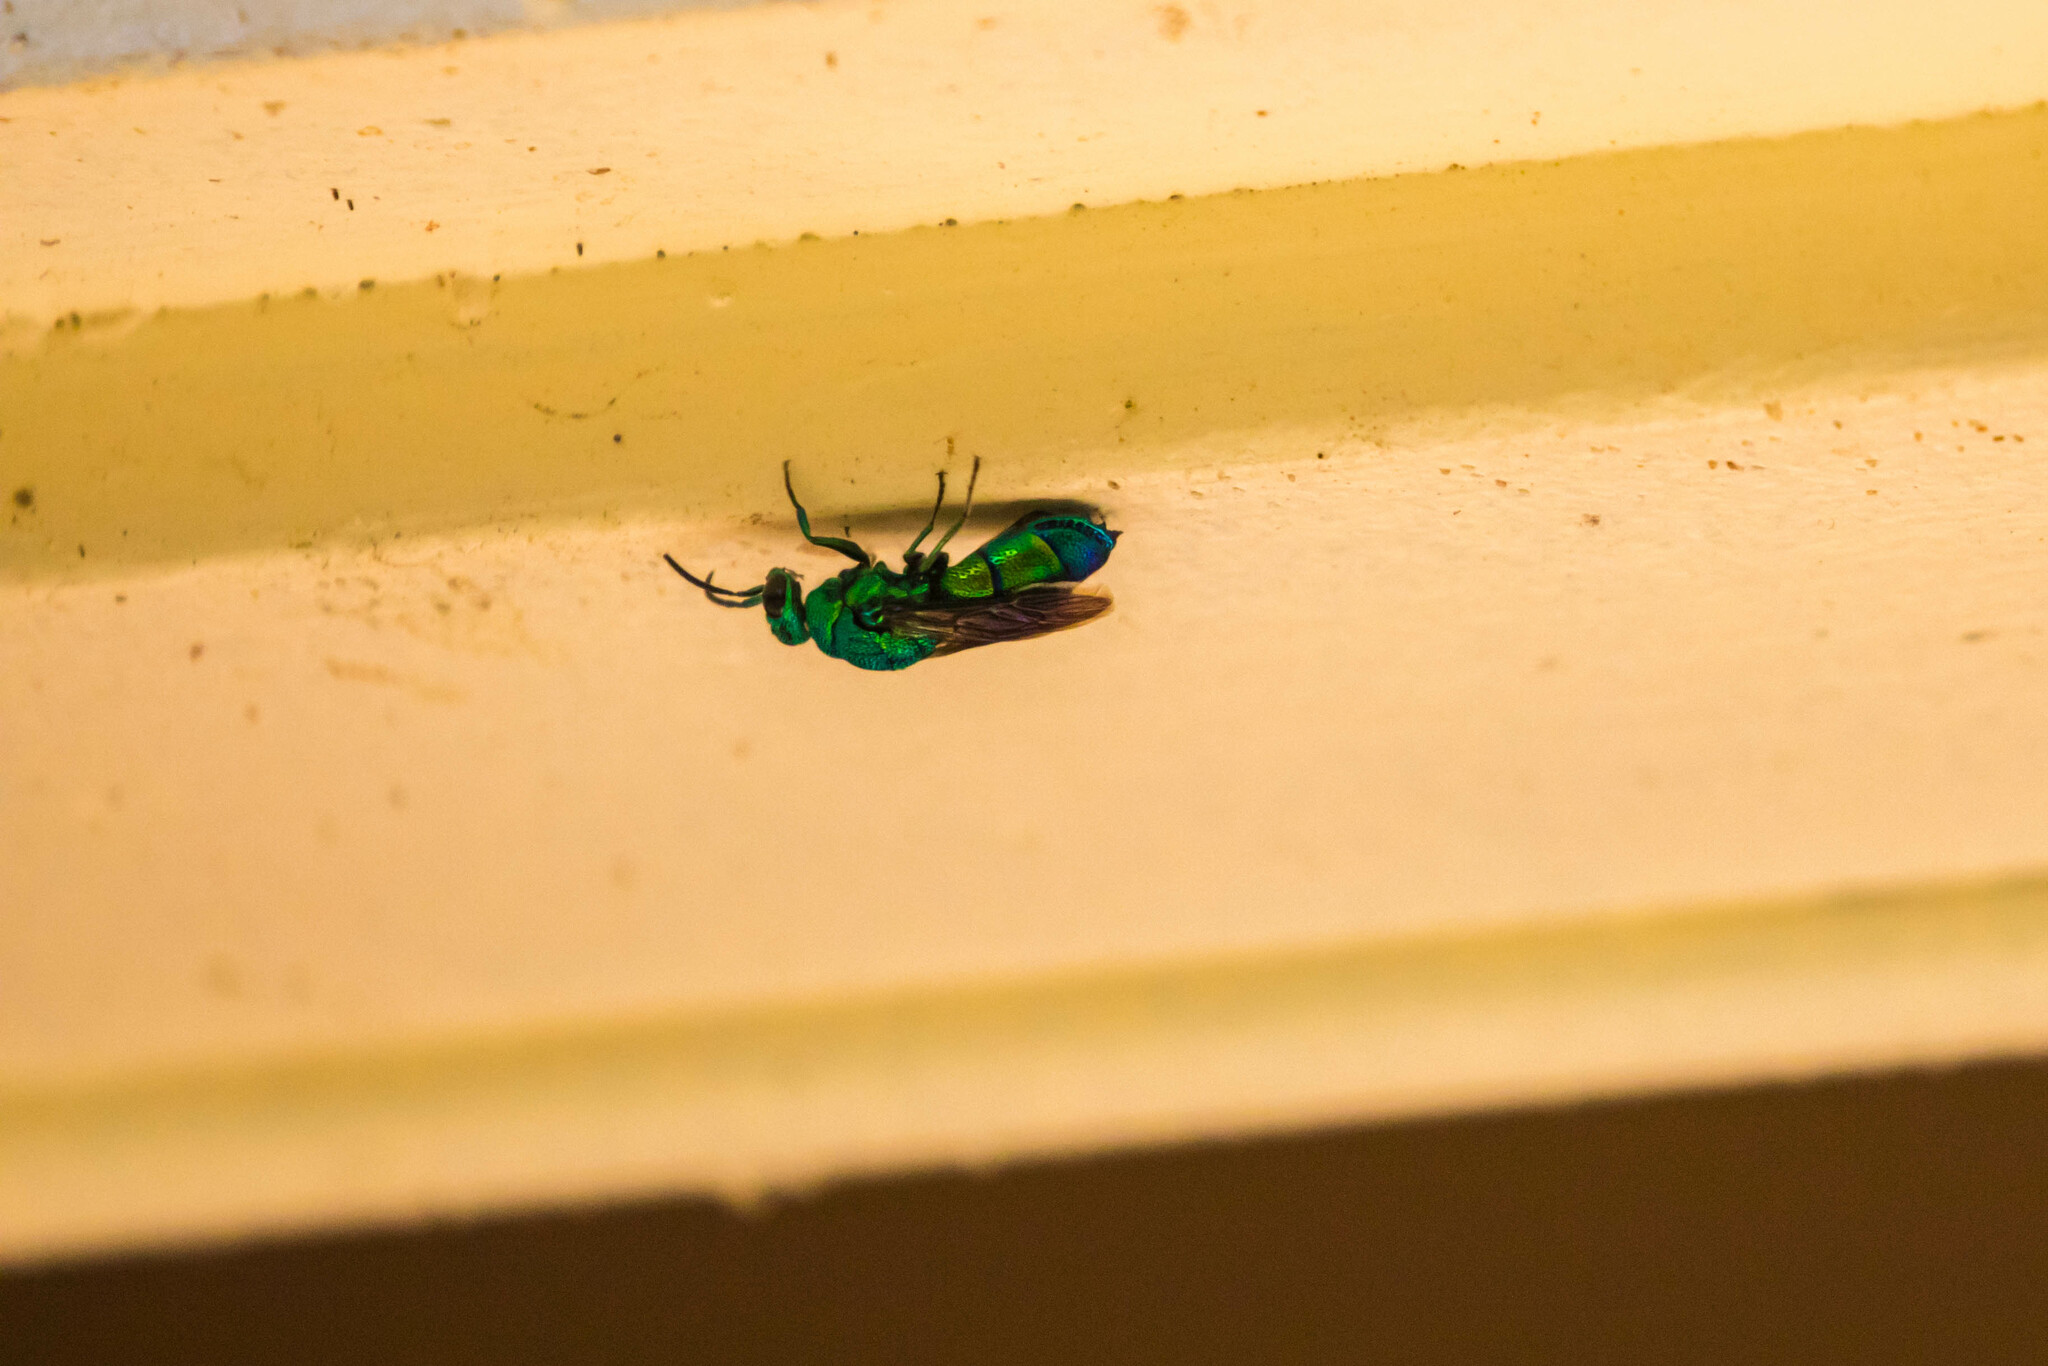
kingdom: Animalia
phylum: Arthropoda
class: Insecta
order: Hymenoptera
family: Chrysididae
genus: Chrysis
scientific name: Chrysis smaragdula
